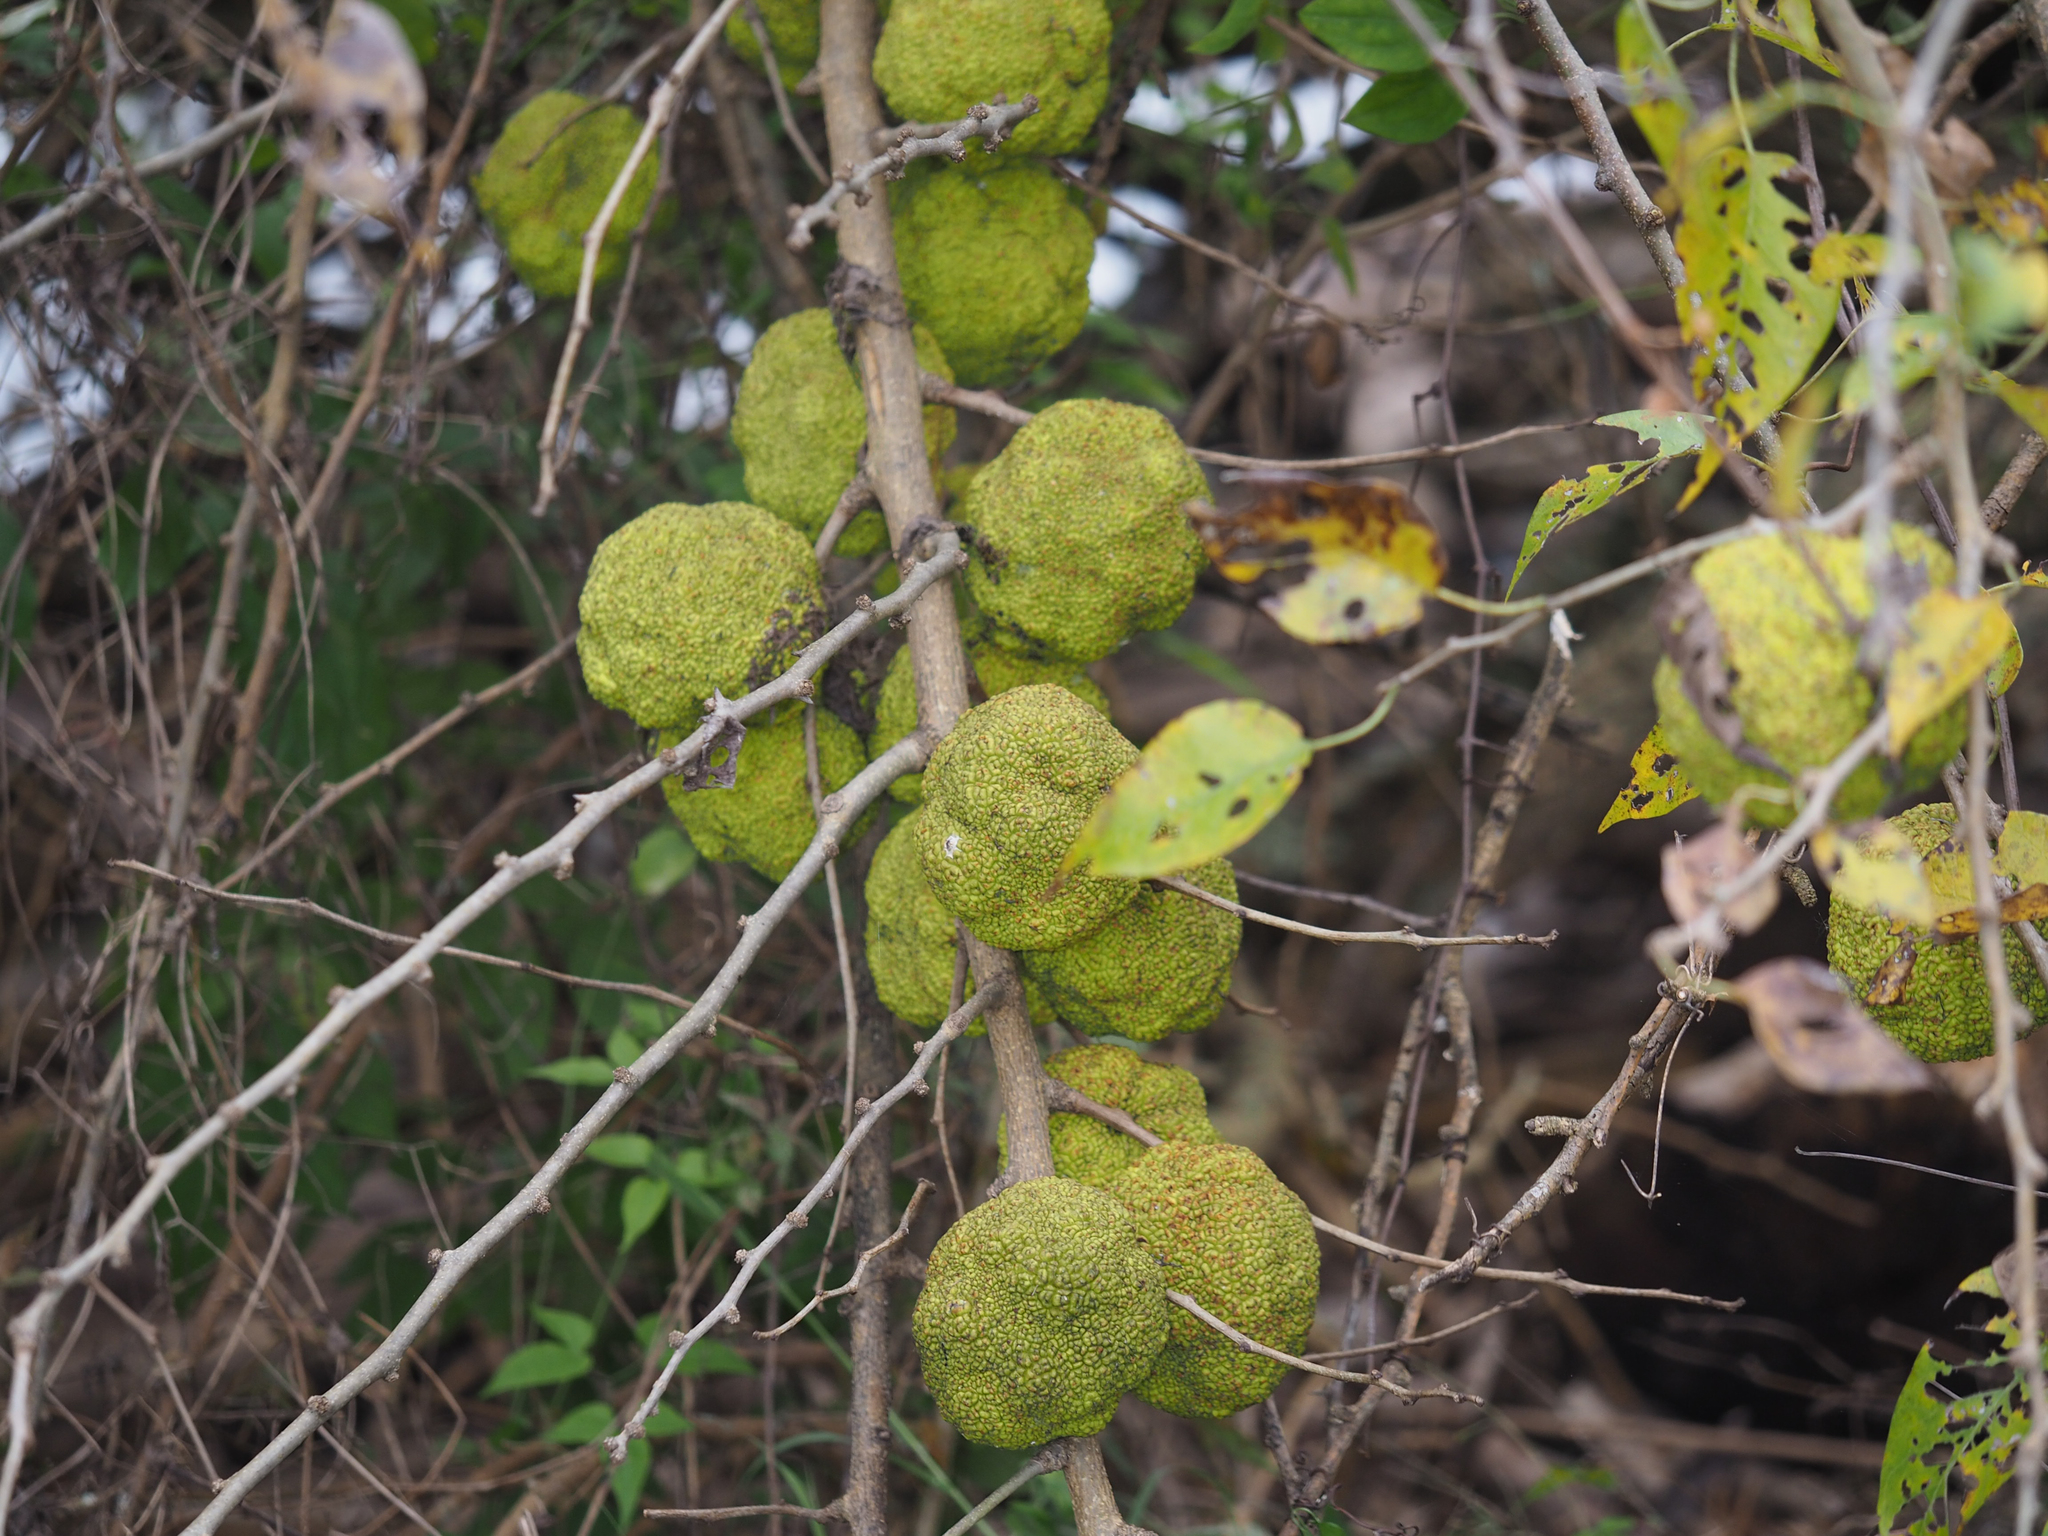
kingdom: Plantae
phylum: Tracheophyta
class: Magnoliopsida
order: Rosales
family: Moraceae
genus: Maclura
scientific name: Maclura pomifera
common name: Osage-orange
